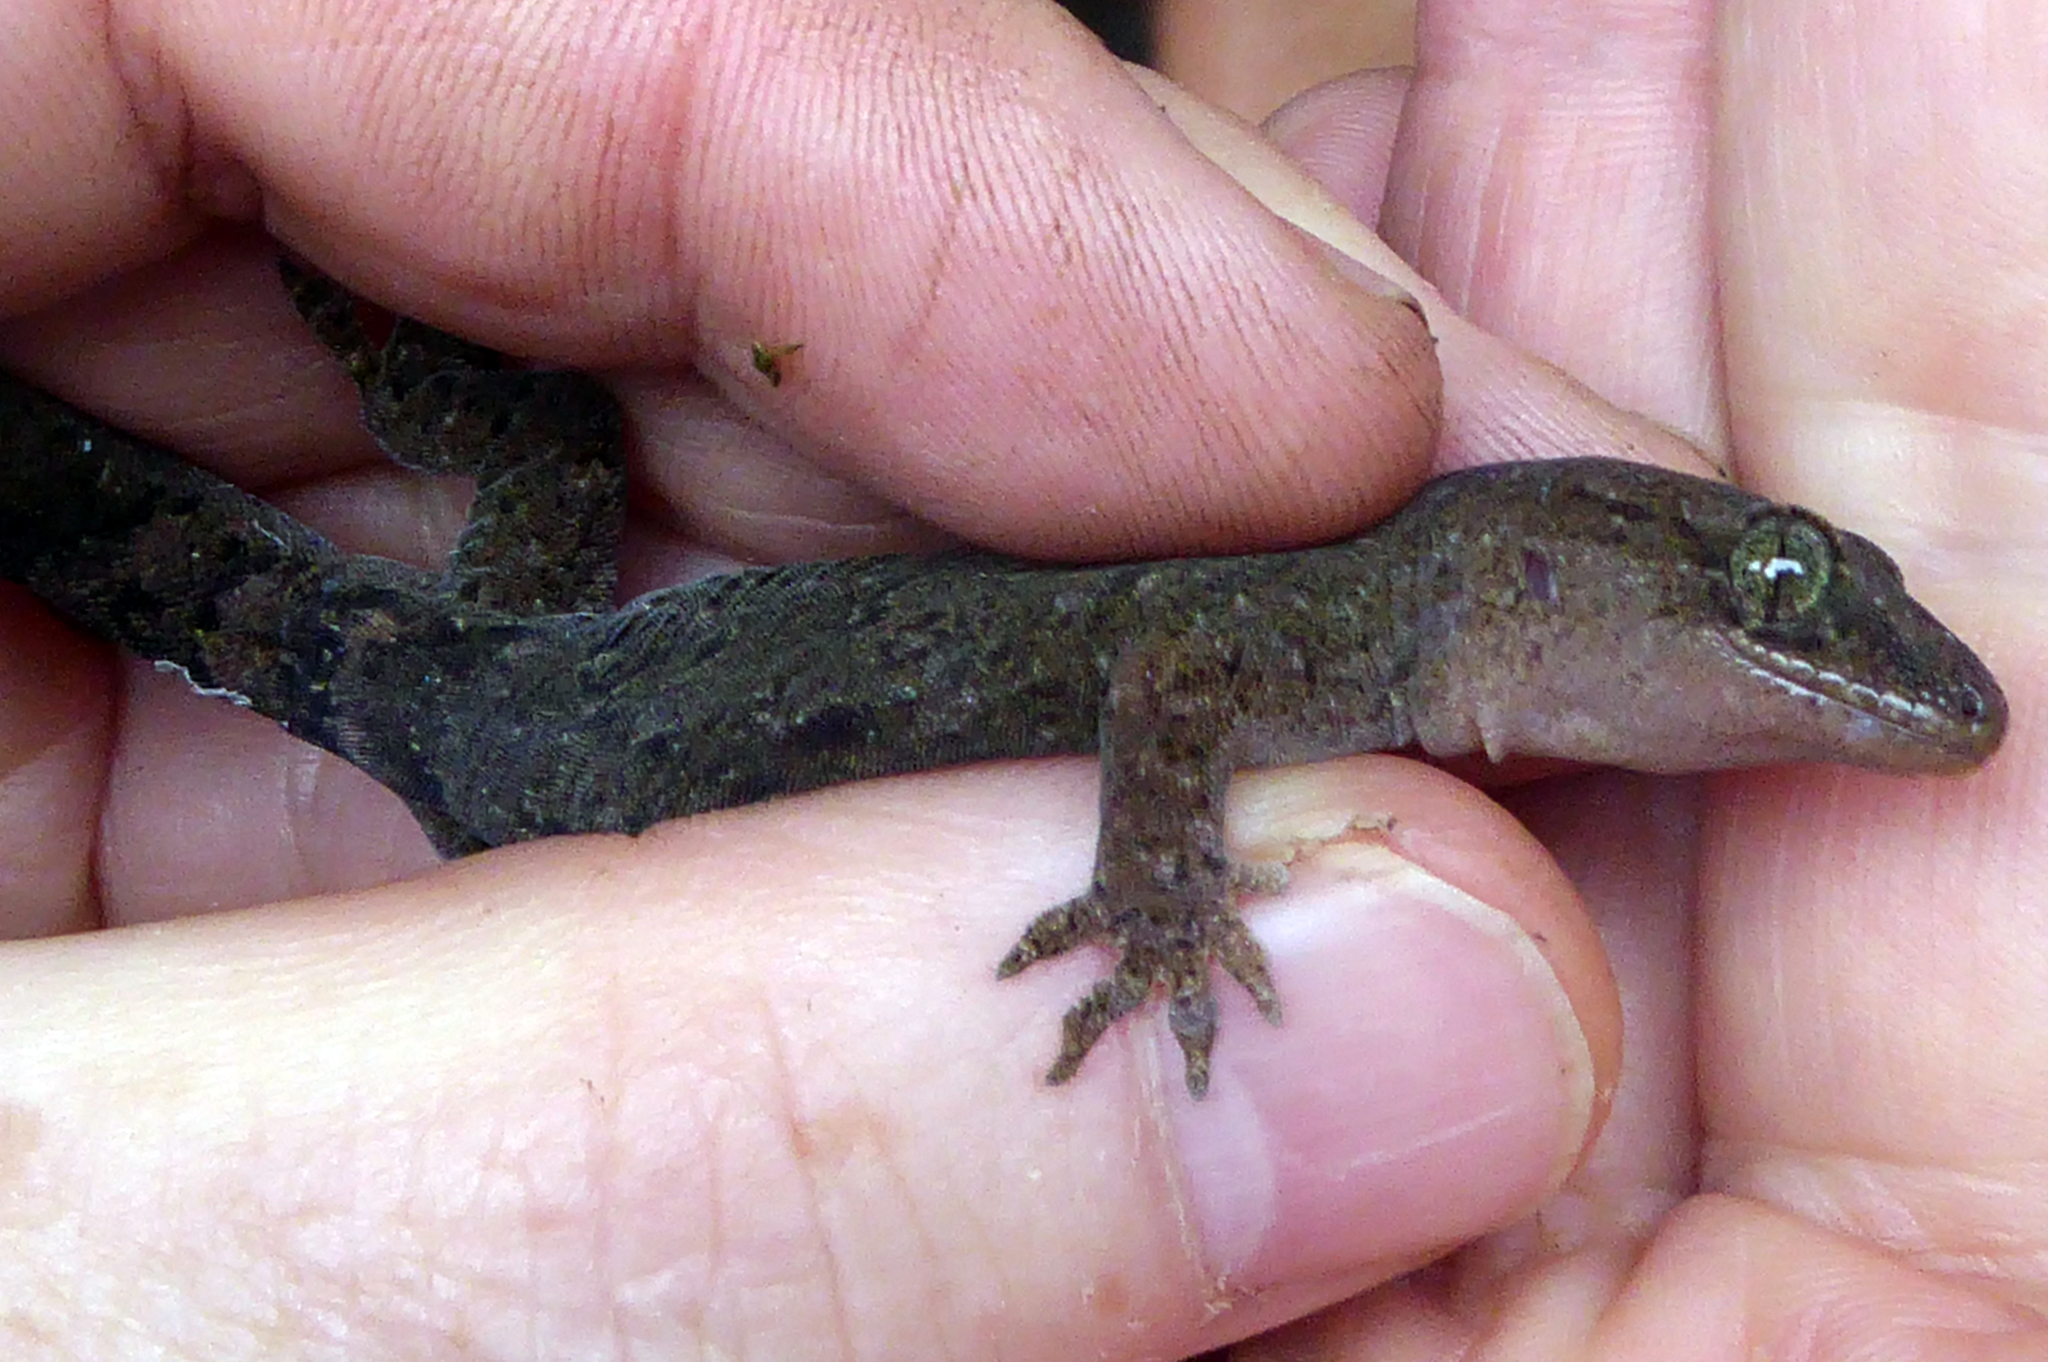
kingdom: Animalia
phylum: Chordata
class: Squamata
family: Diplodactylidae
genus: Woodworthia
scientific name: Woodworthia maculata
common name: Raukawa gecko
